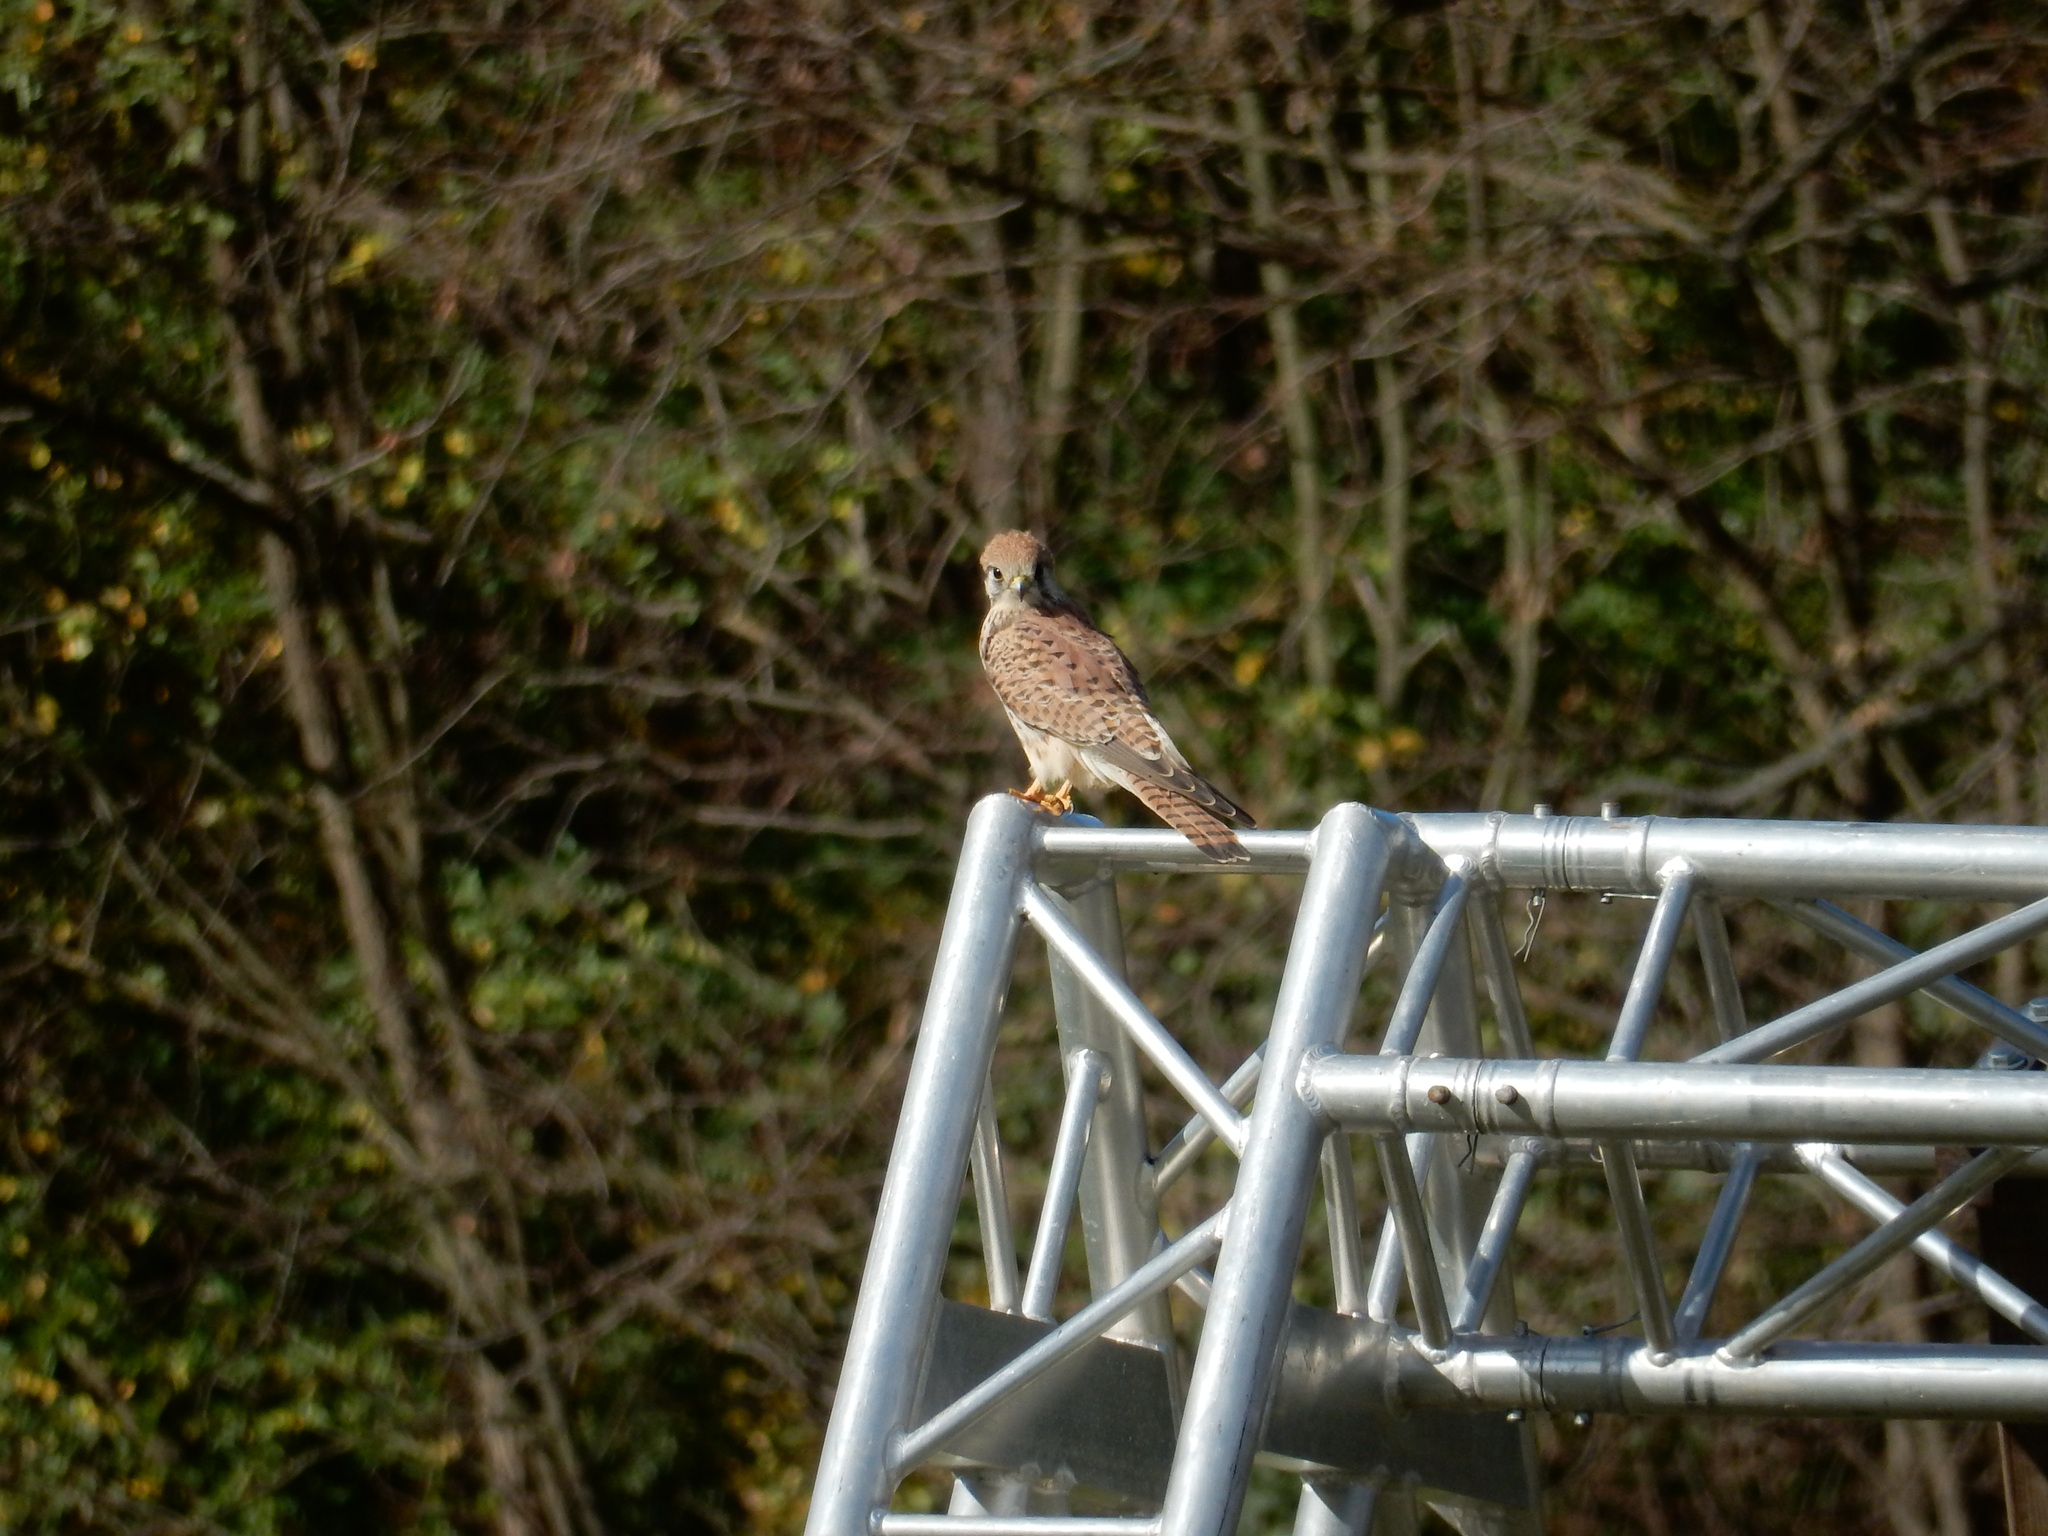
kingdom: Animalia
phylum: Chordata
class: Aves
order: Falconiformes
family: Falconidae
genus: Falco
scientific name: Falco tinnunculus
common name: Common kestrel
